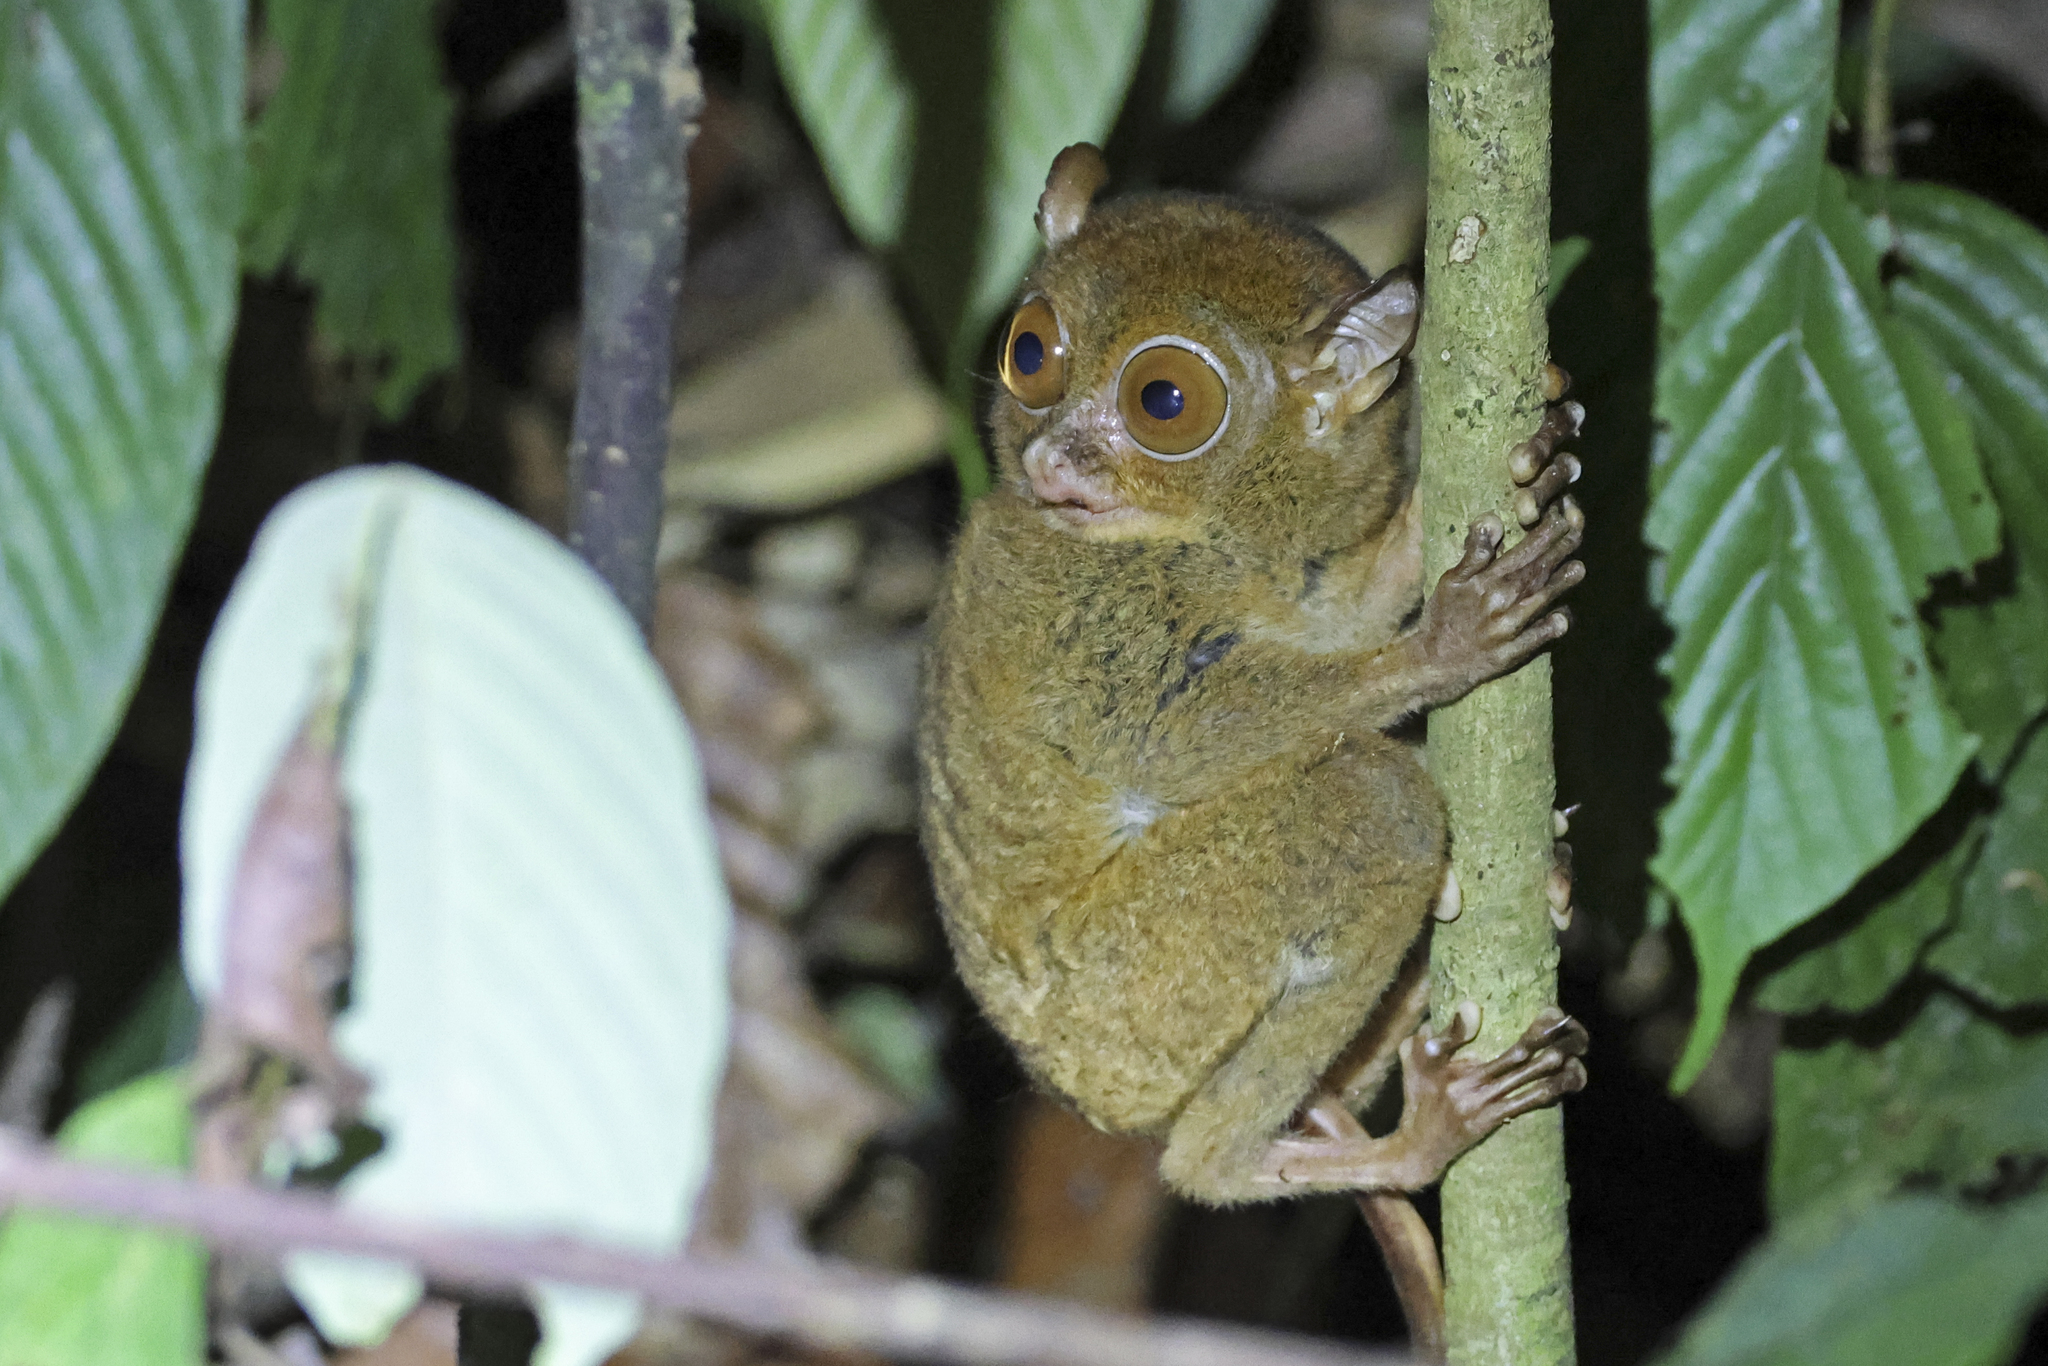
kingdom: Animalia
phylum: Chordata
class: Mammalia
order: Primates
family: Tarsiidae
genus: Cephalopachus
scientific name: Cephalopachus bancanus
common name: Western tarsier
